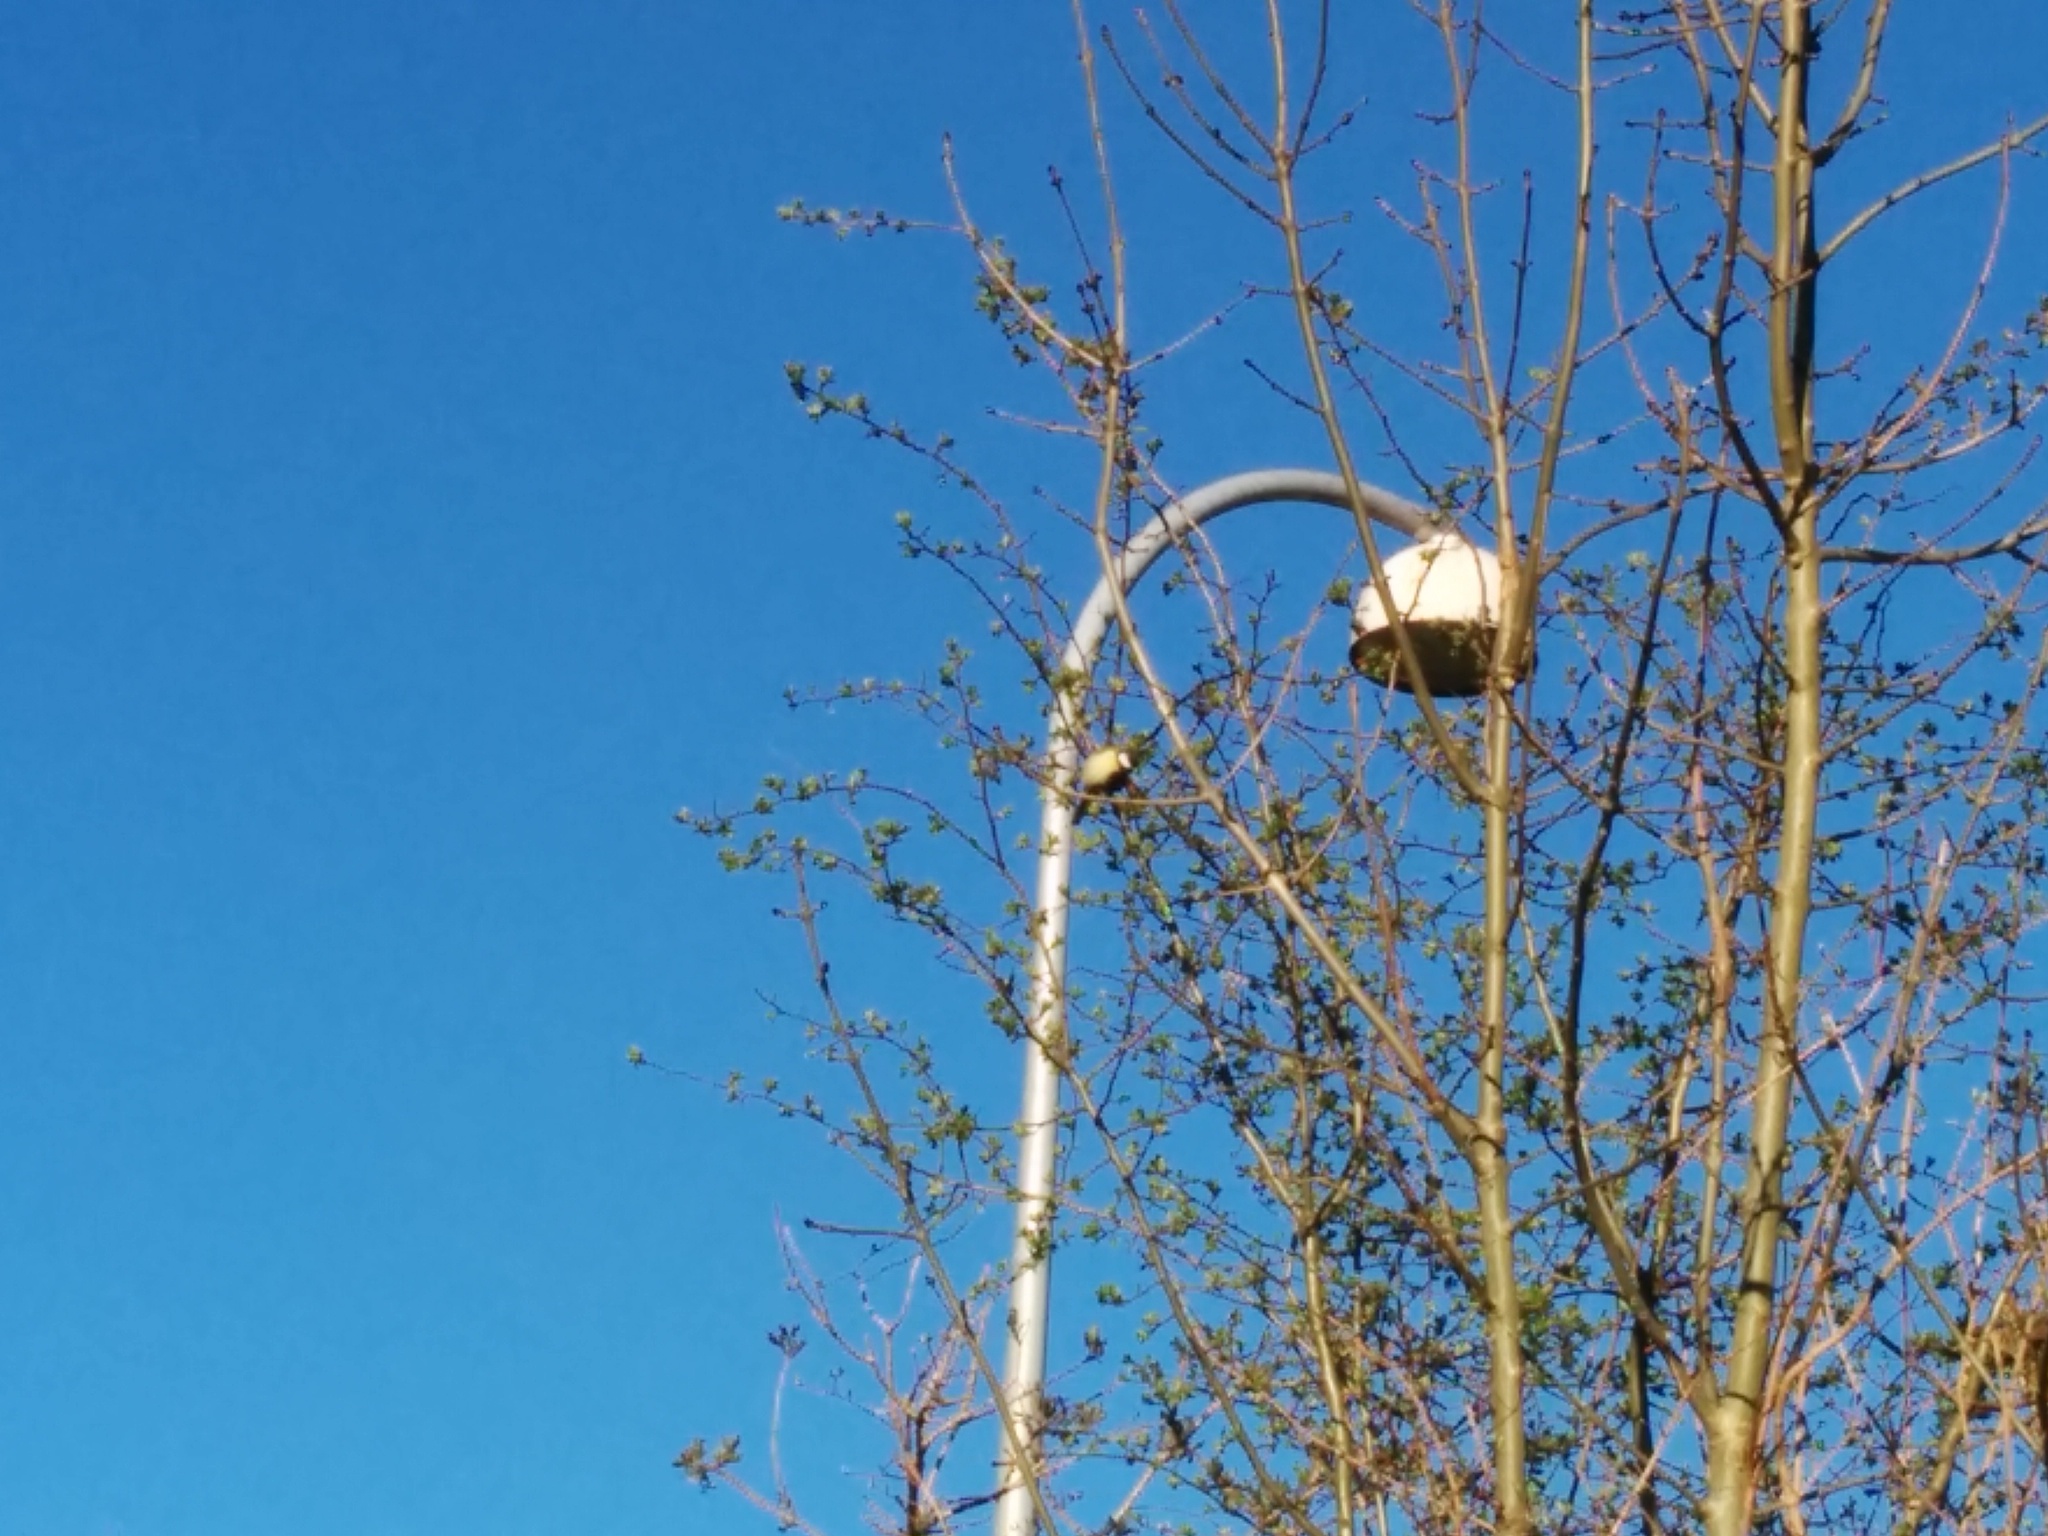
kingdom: Animalia
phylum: Chordata
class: Aves
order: Passeriformes
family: Paridae
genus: Parus
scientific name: Parus major
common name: Great tit
